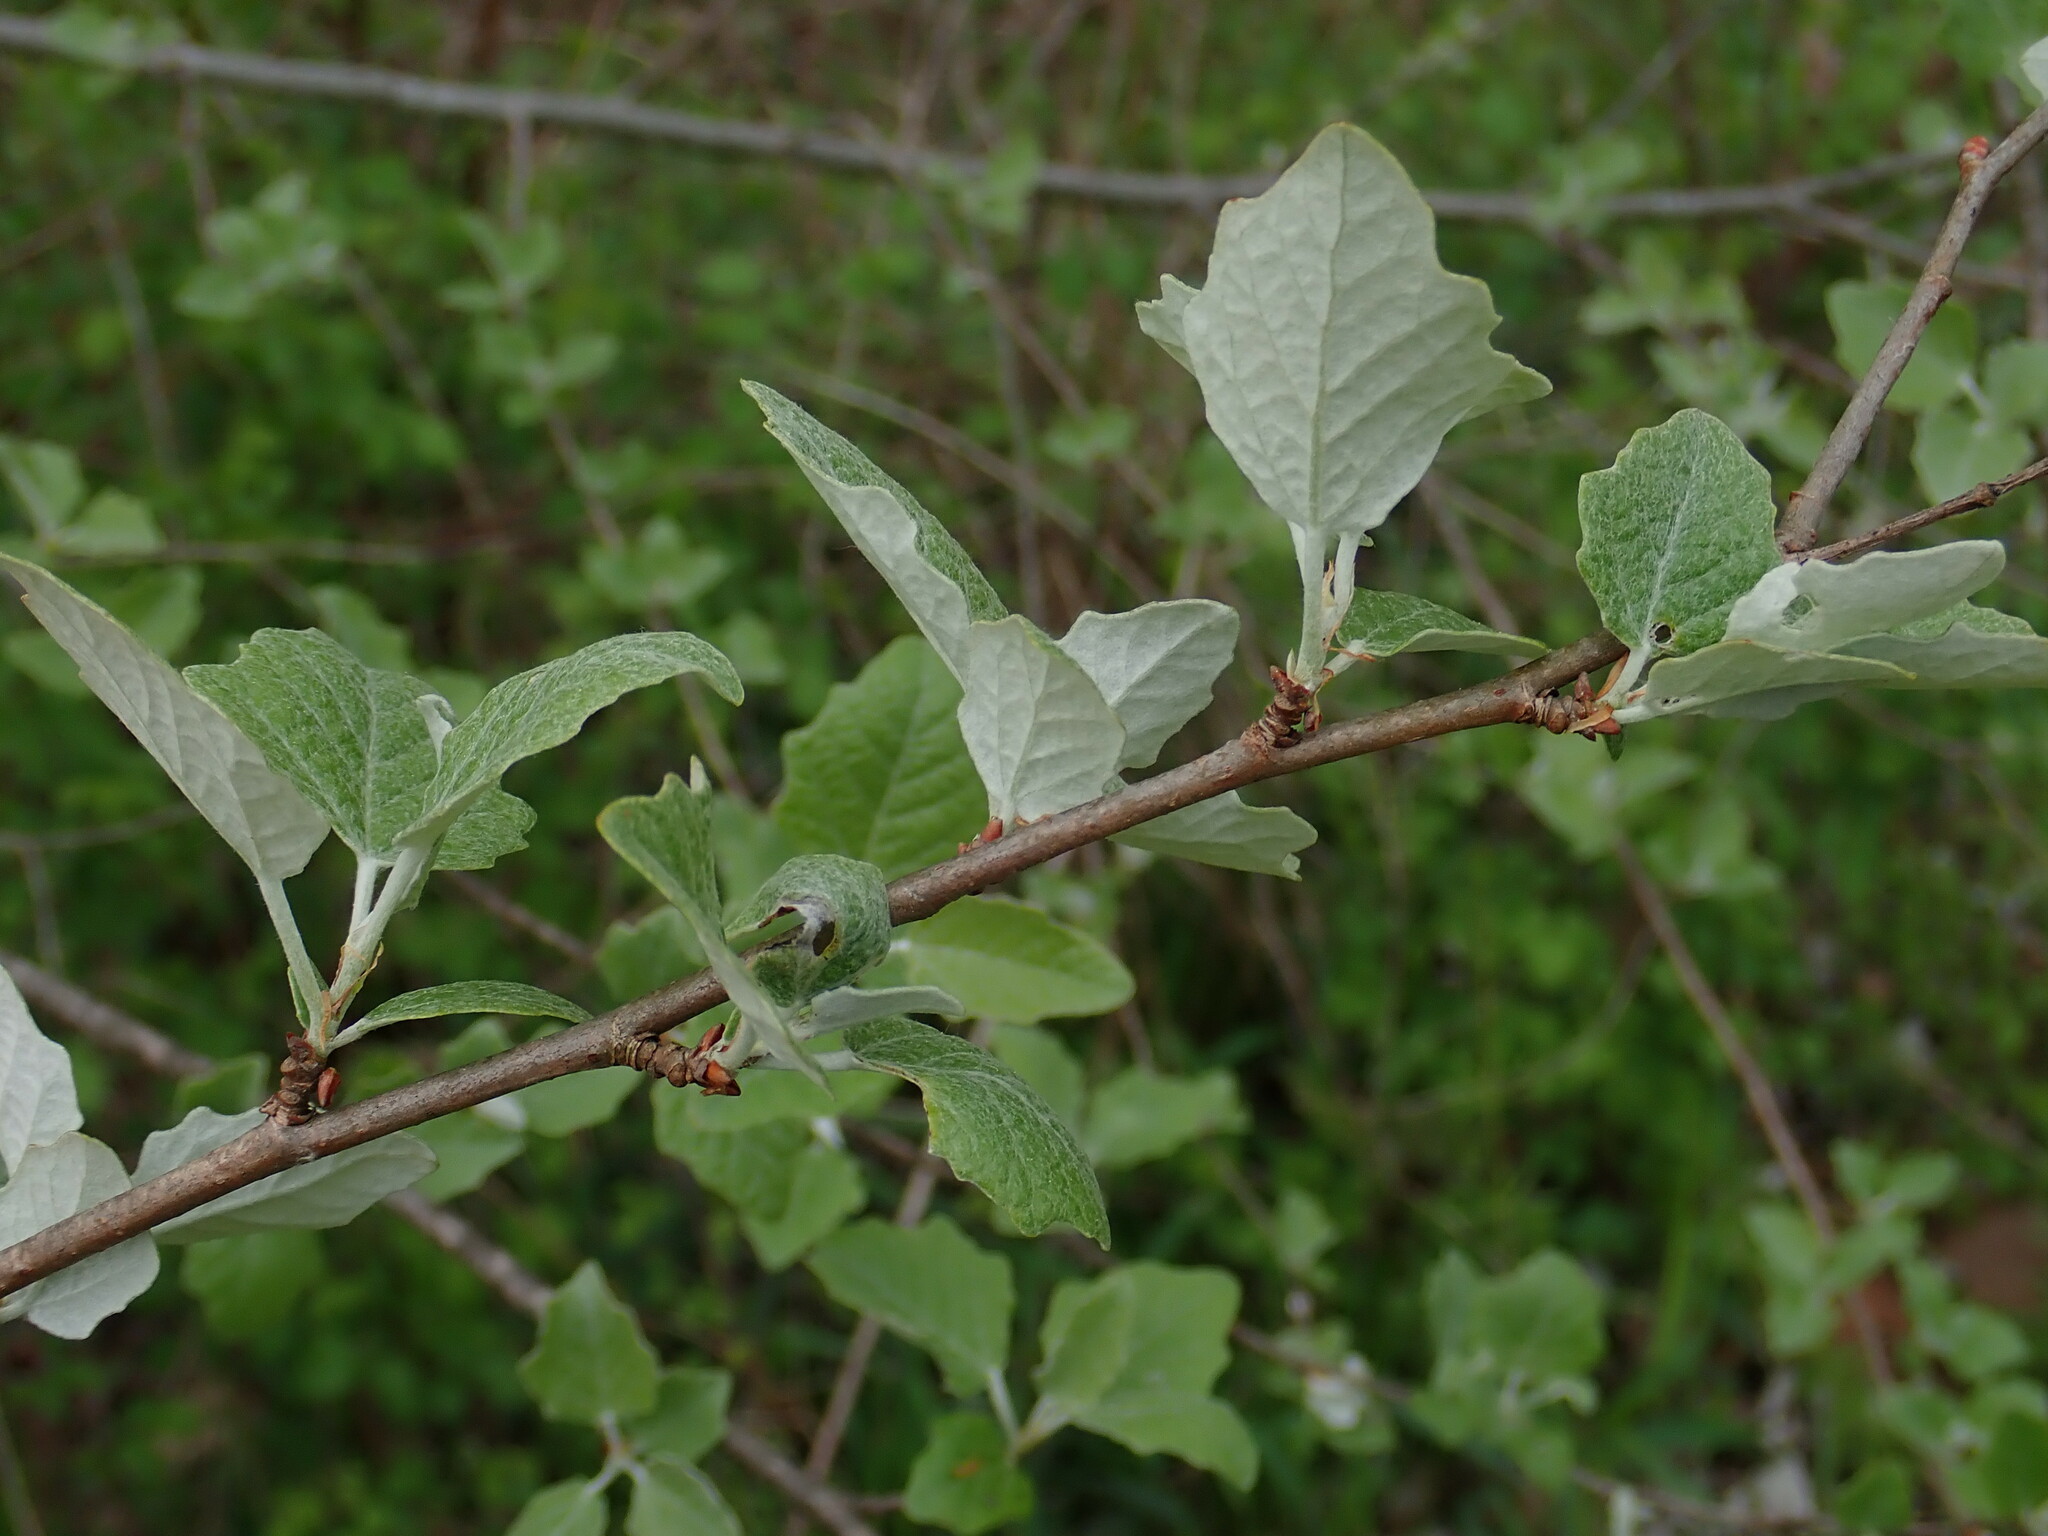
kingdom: Plantae
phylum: Tracheophyta
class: Magnoliopsida
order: Malpighiales
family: Salicaceae
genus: Populus
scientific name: Populus alba
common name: White poplar
